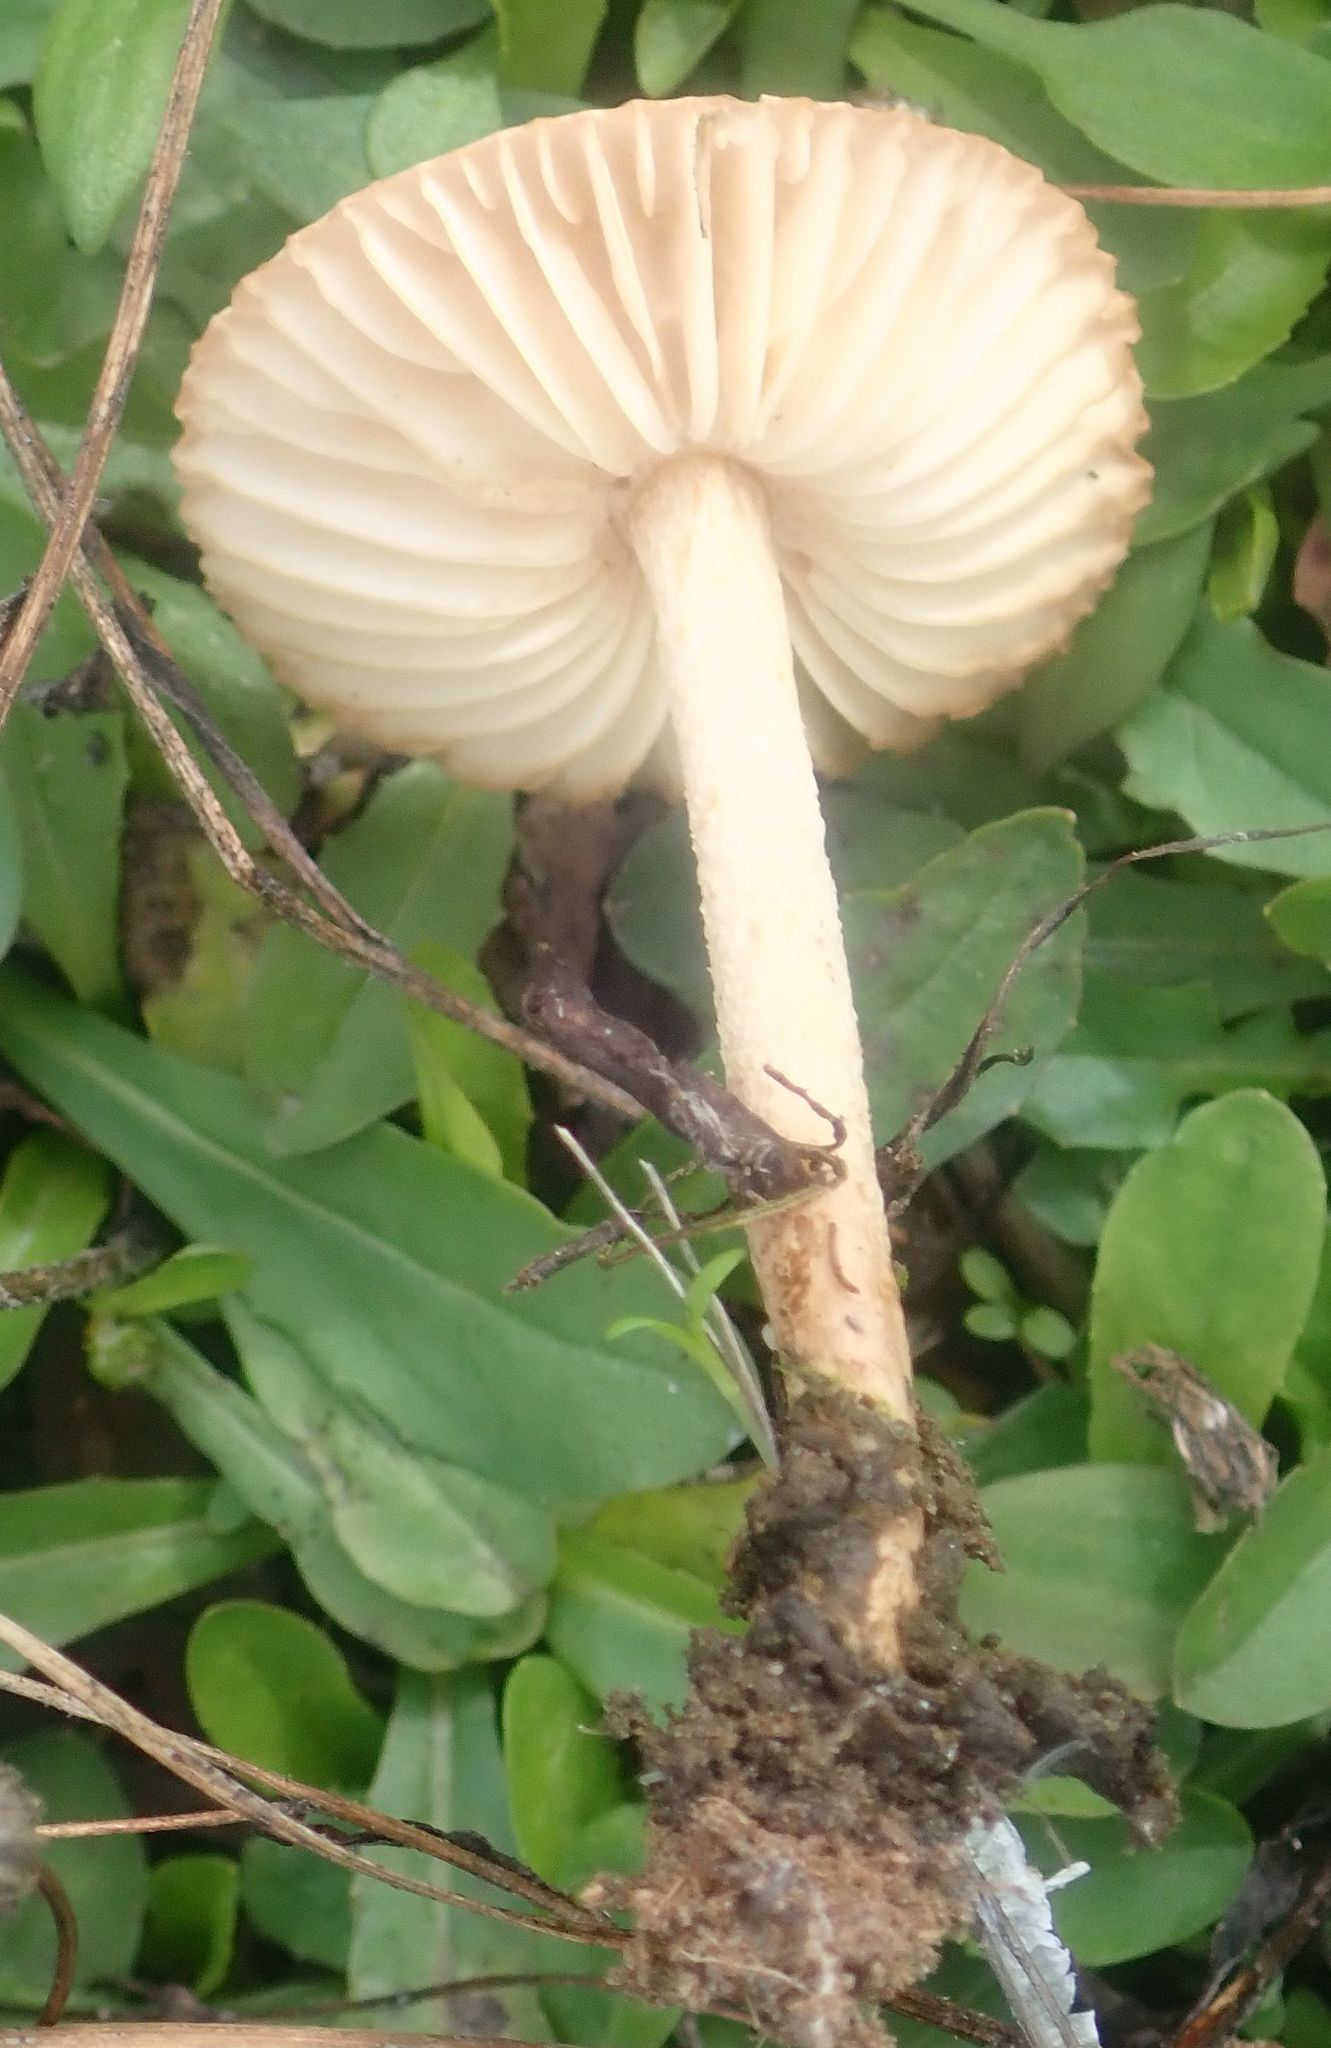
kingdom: Fungi
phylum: Basidiomycota
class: Agaricomycetes
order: Agaricales
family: Marasmiaceae
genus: Marasmius
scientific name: Marasmius oreades
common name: Fairy ring champignon
